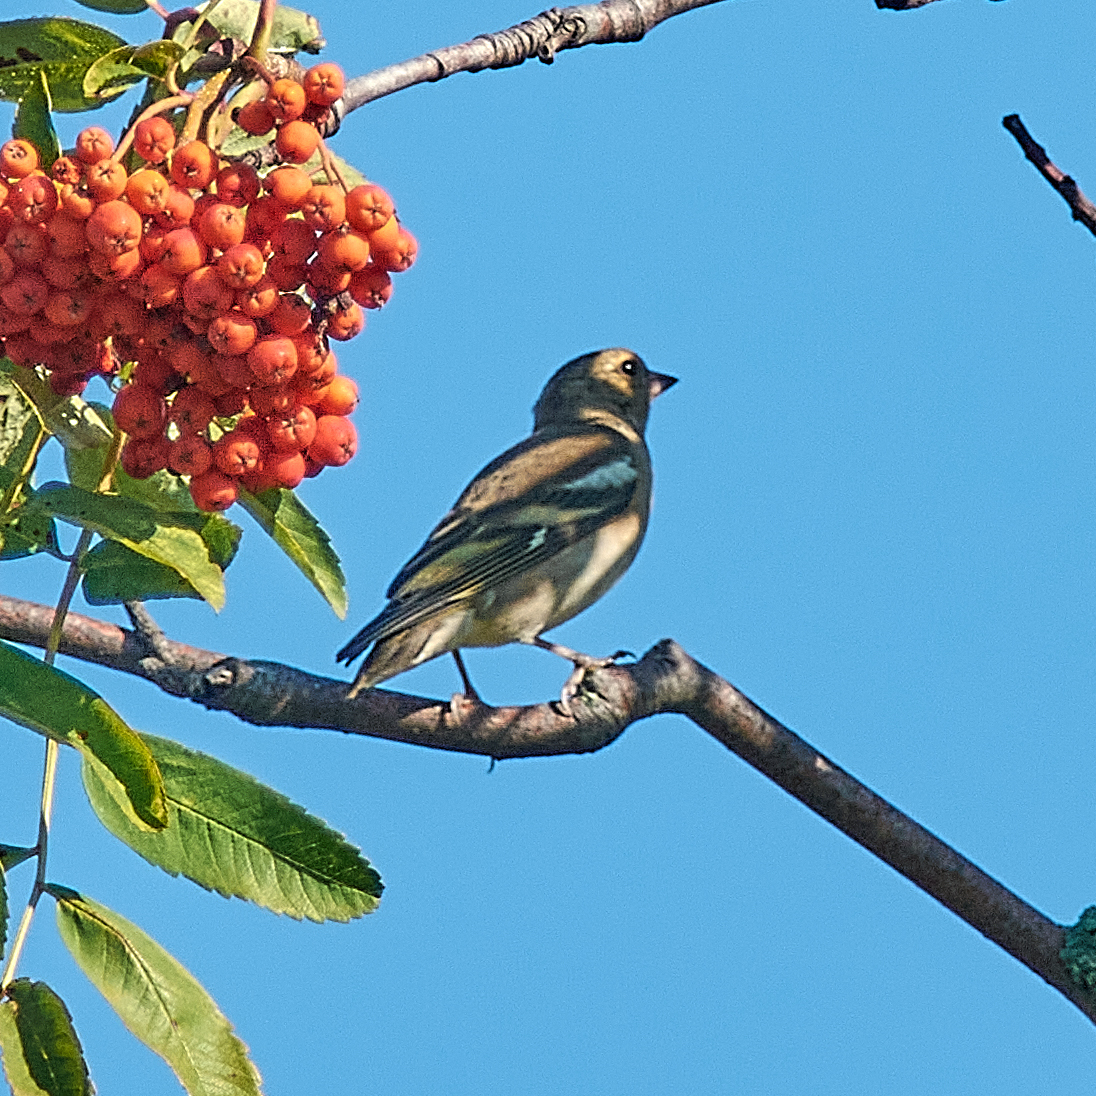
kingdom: Animalia
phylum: Chordata
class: Aves
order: Passeriformes
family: Fringillidae
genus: Fringilla
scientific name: Fringilla coelebs
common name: Common chaffinch
